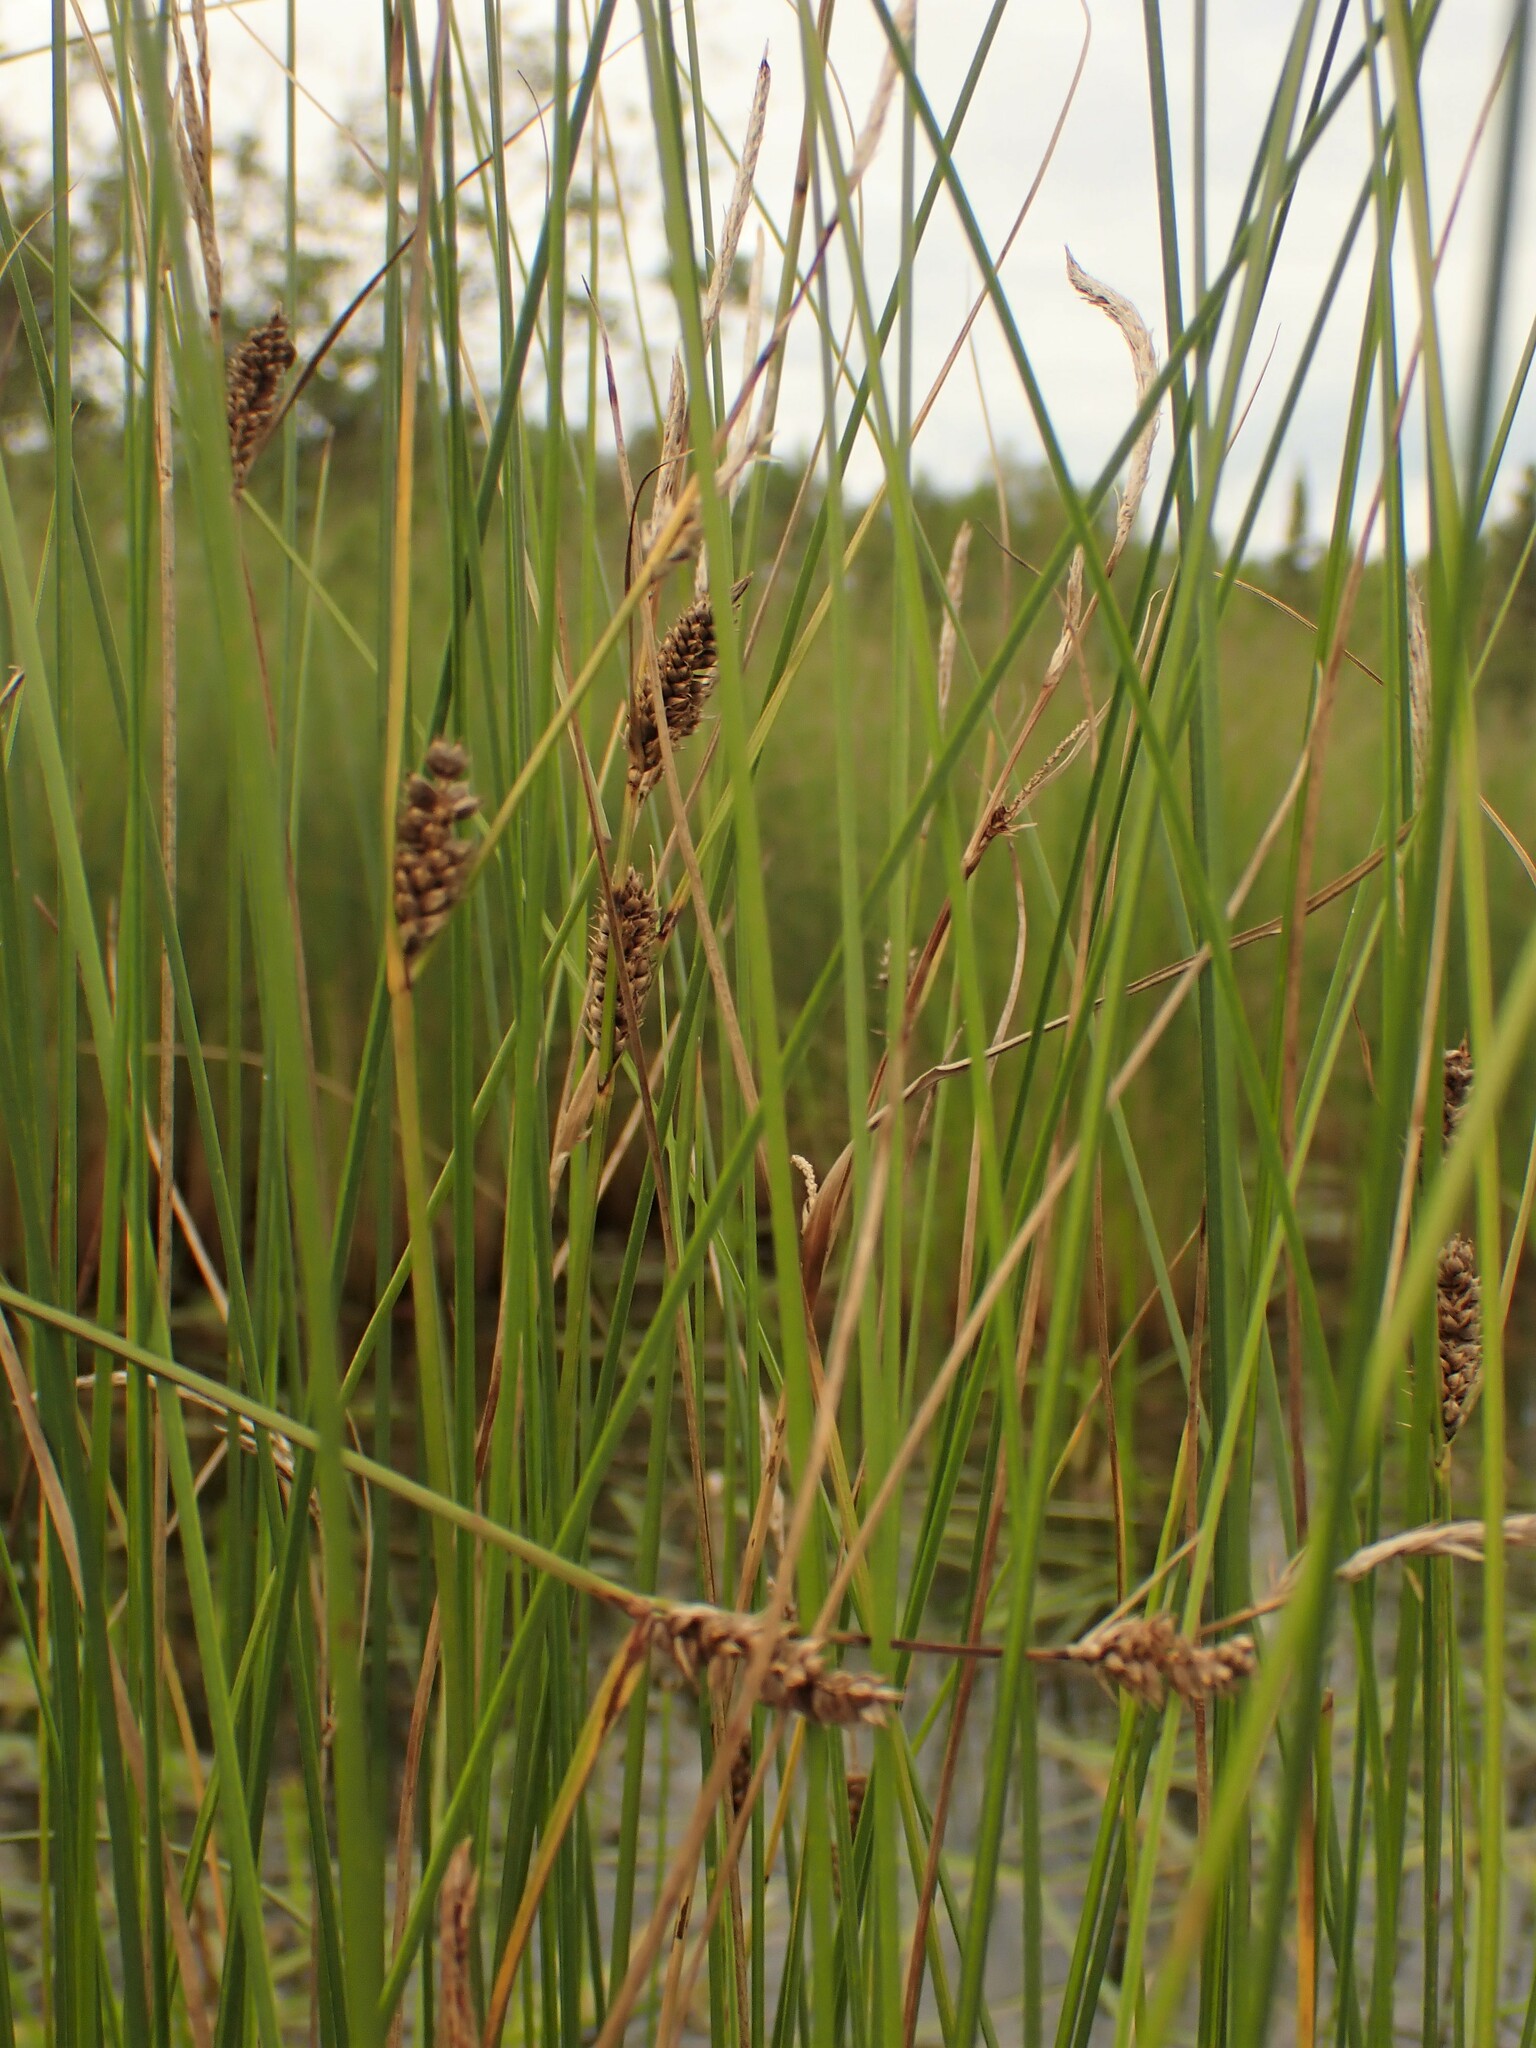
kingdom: Plantae
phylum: Tracheophyta
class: Liliopsida
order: Poales
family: Cyperaceae
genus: Carex
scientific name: Carex lasiocarpa
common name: Slender sedge
